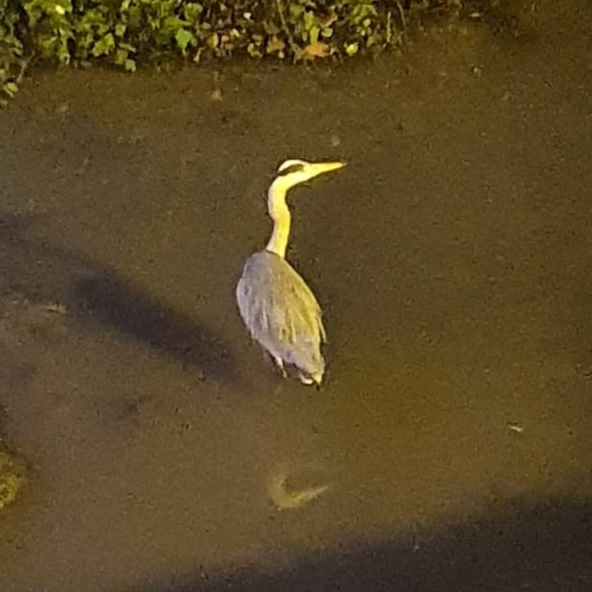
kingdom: Animalia
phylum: Chordata
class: Aves
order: Pelecaniformes
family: Ardeidae
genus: Ardea
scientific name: Ardea cinerea
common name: Grey heron
